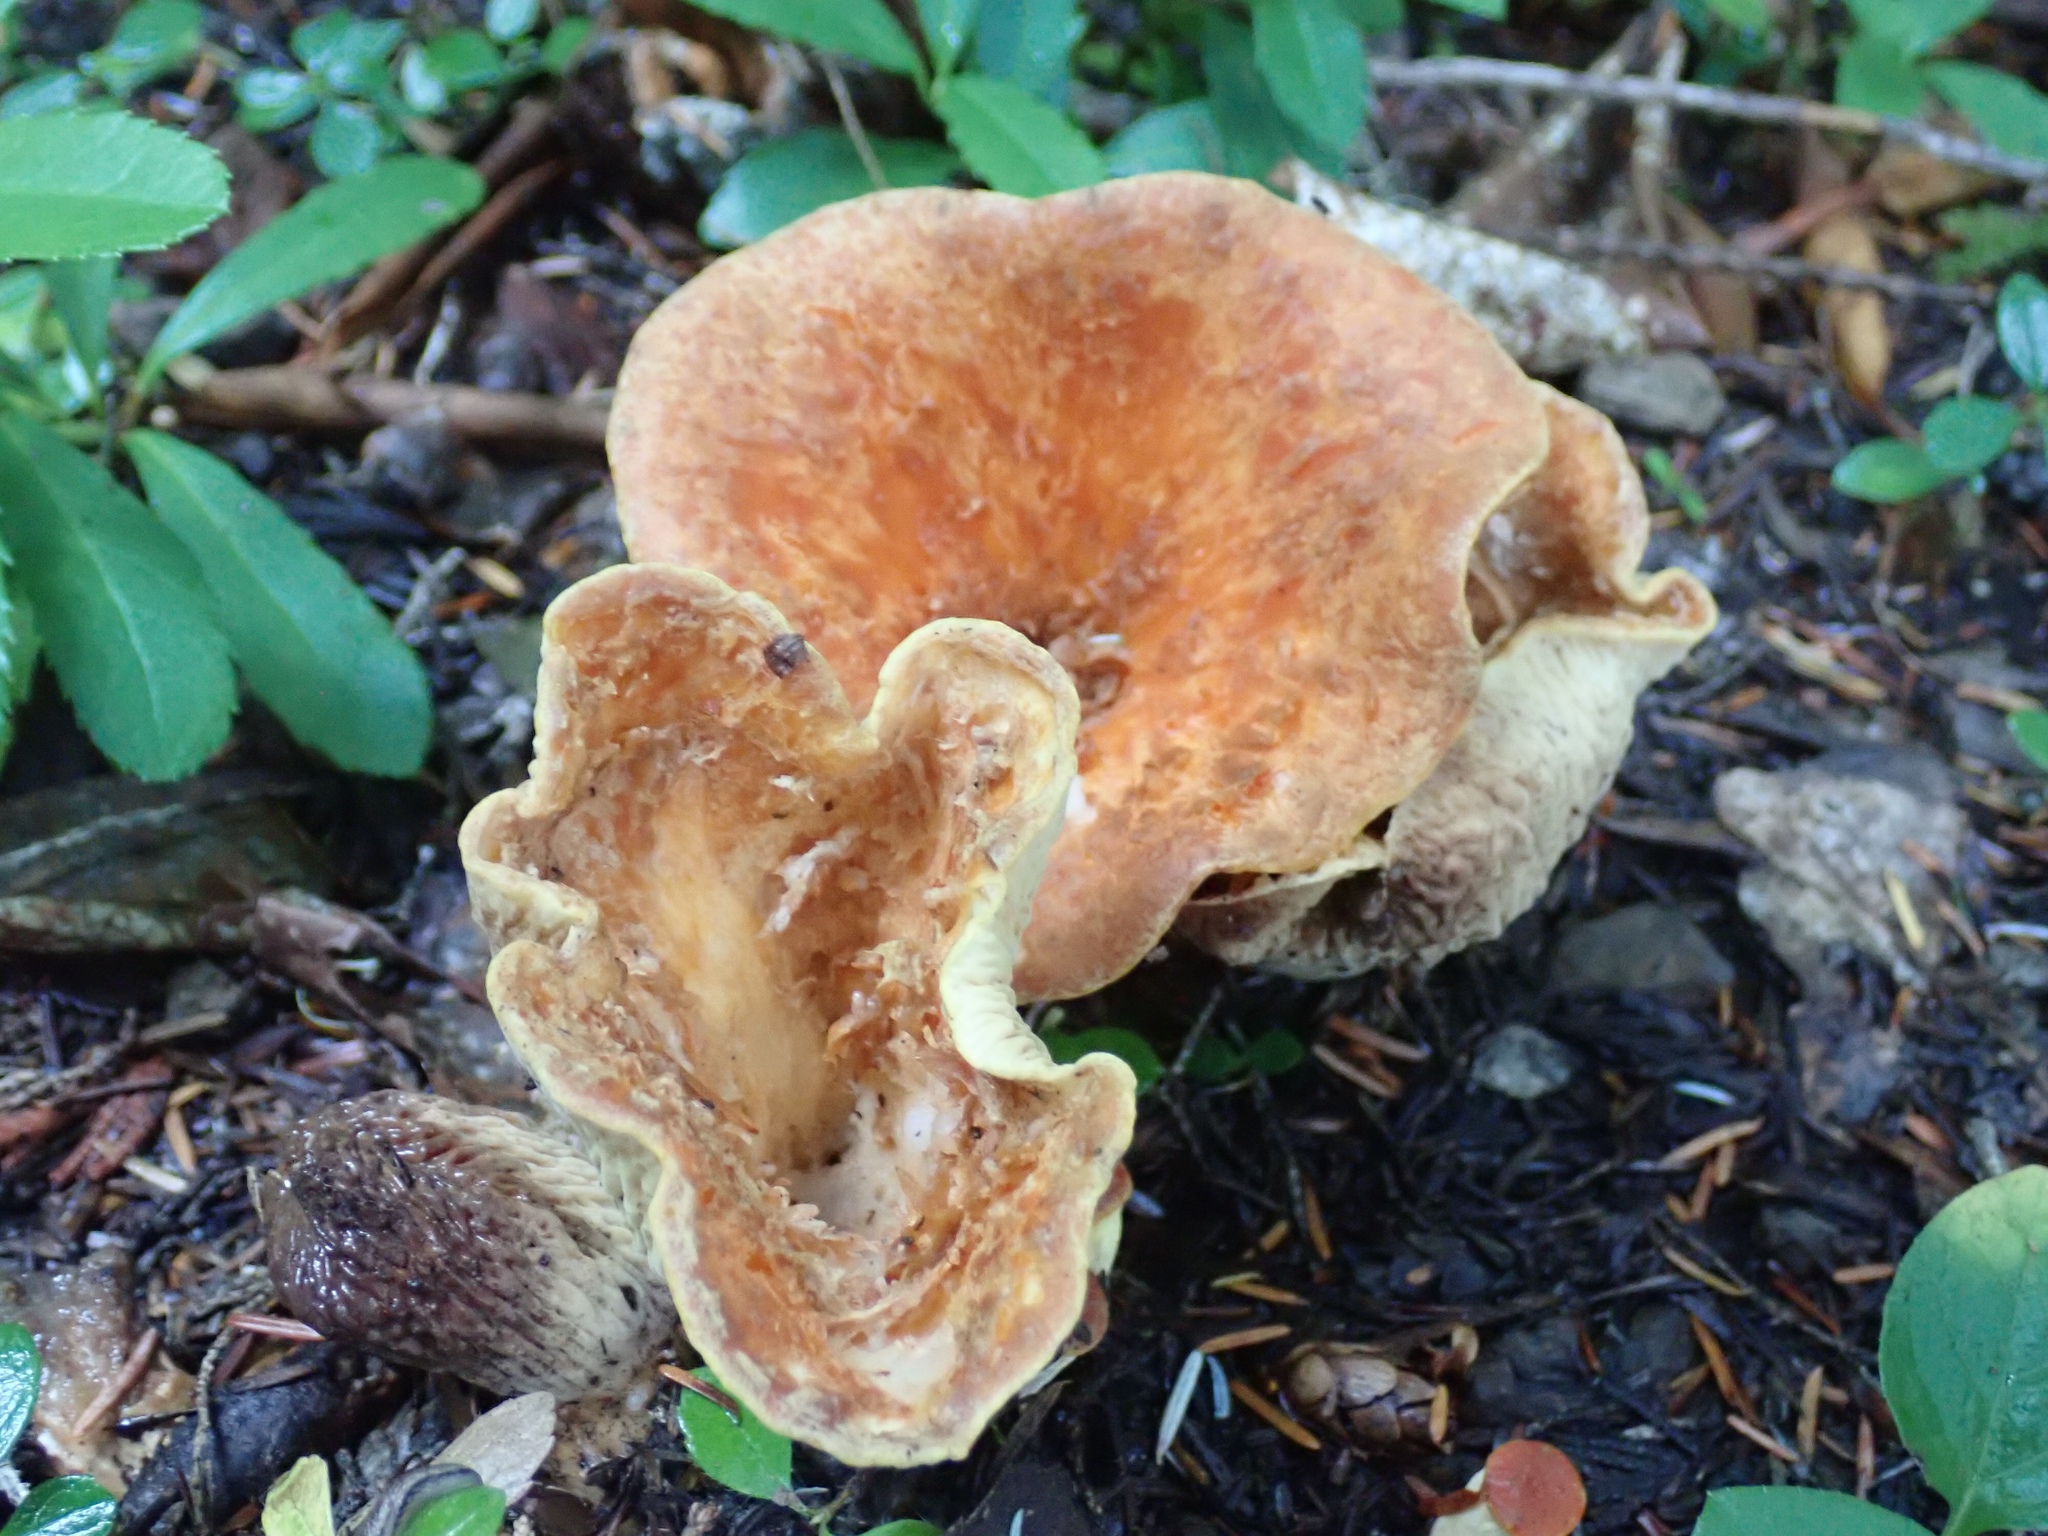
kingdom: Fungi
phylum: Basidiomycota
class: Agaricomycetes
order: Gomphales
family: Gomphaceae
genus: Turbinellus
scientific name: Turbinellus floccosus
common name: Scaly chanterelle
